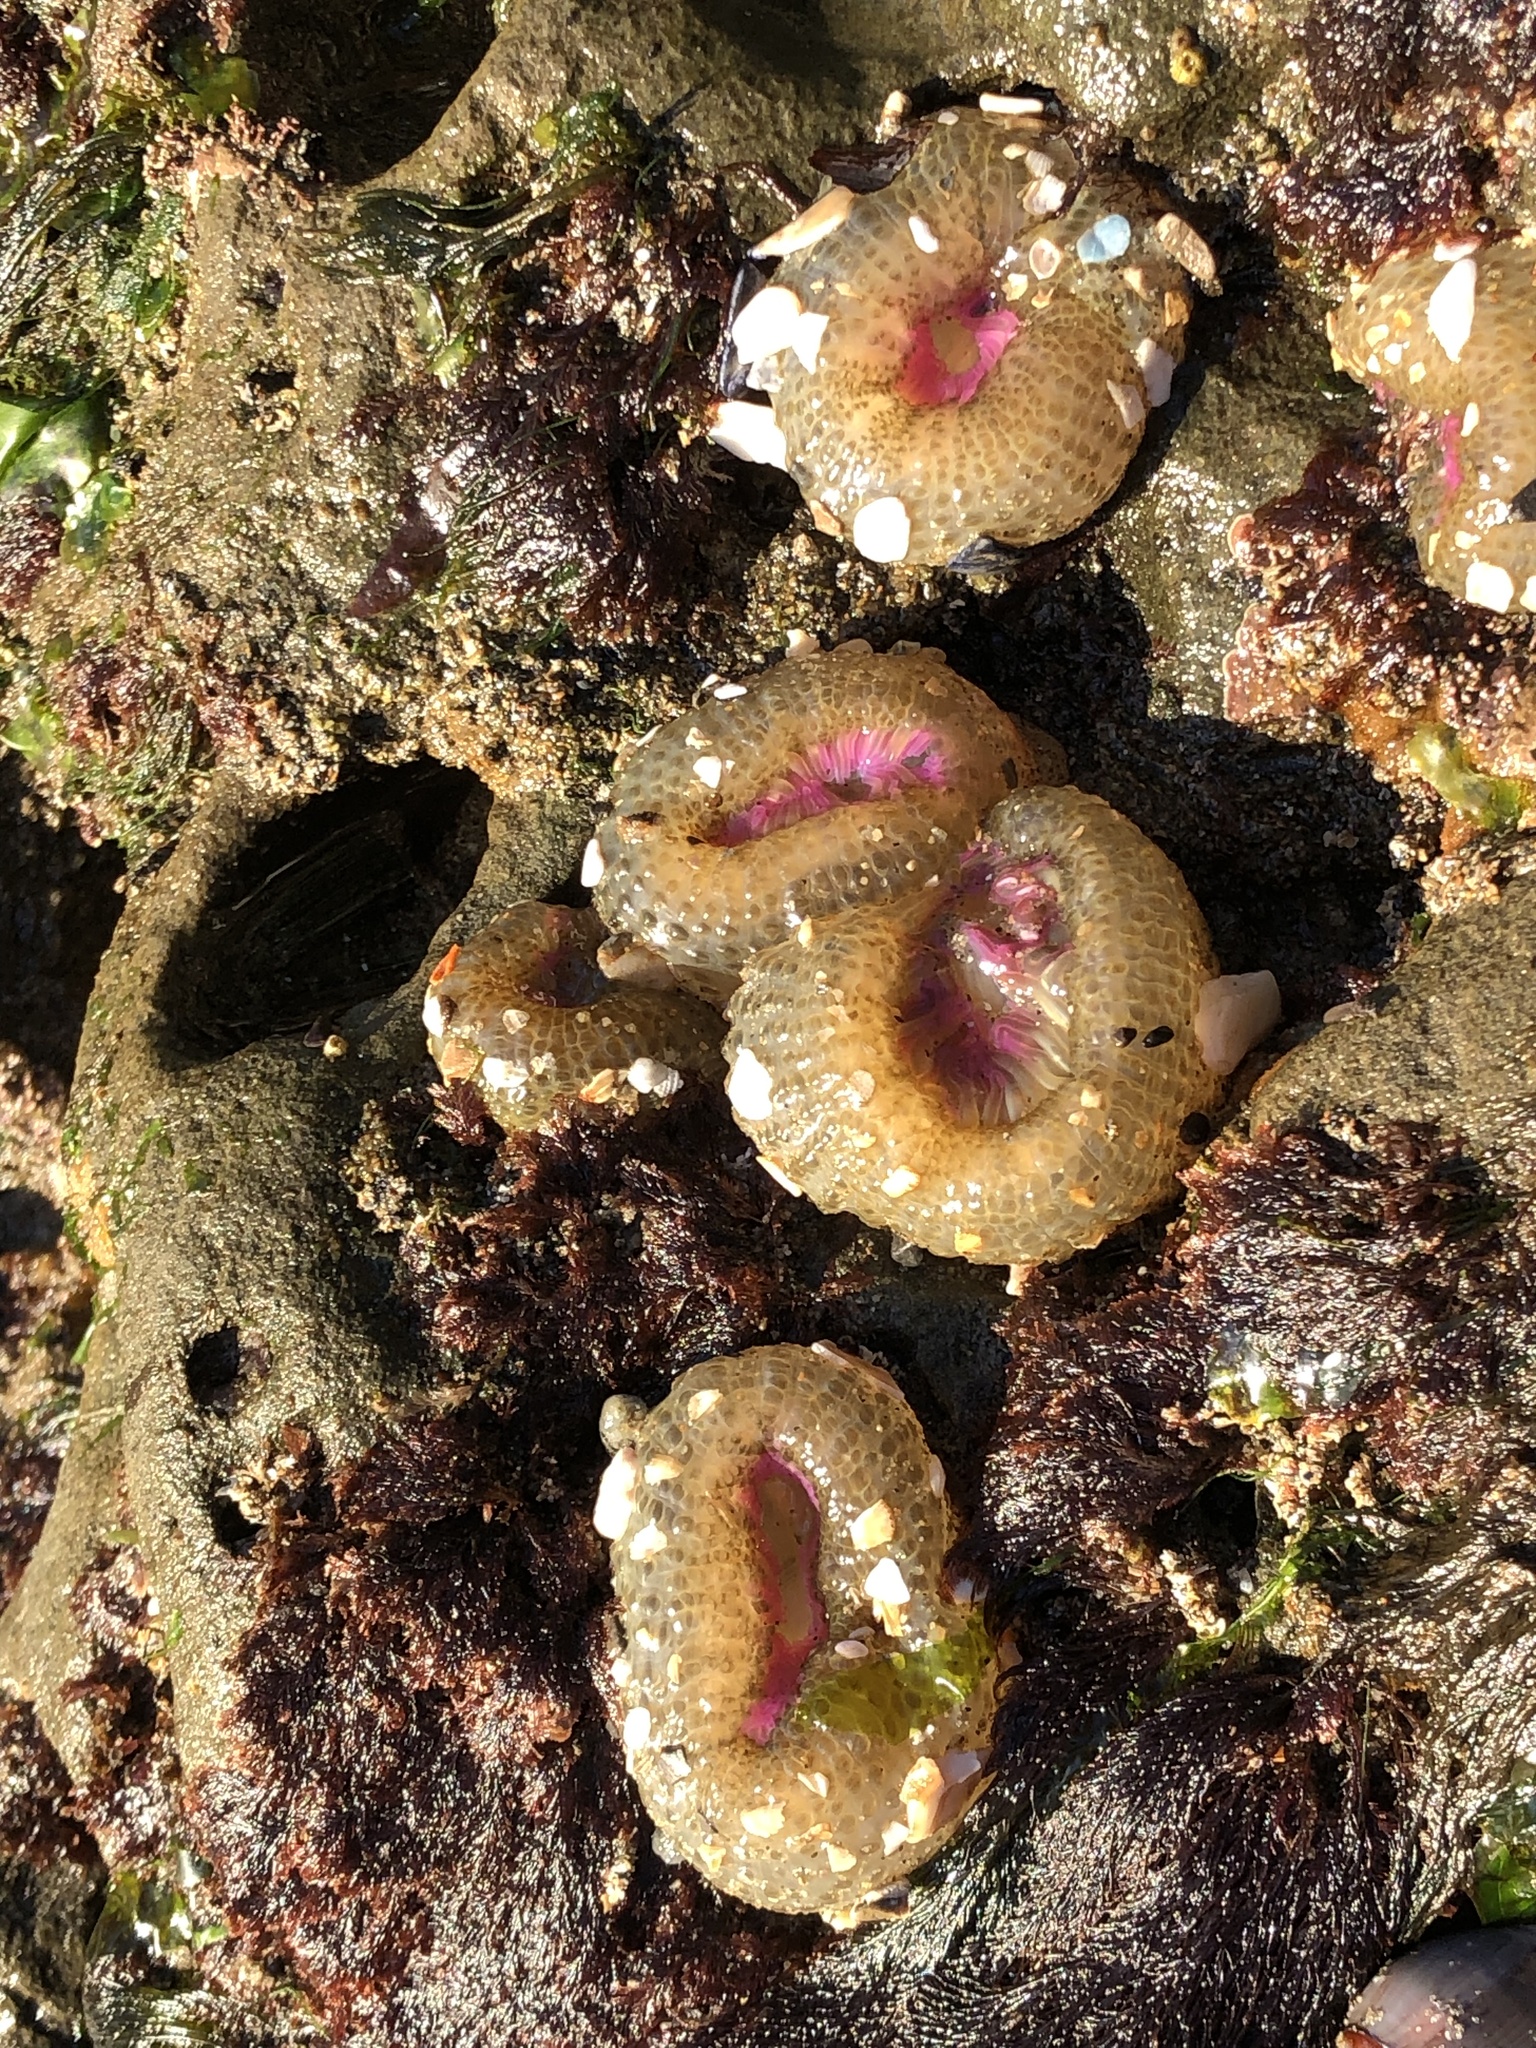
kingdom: Animalia
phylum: Cnidaria
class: Anthozoa
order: Actiniaria
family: Actiniidae
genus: Anthopleura
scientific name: Anthopleura elegantissima
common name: Clonal anemone
